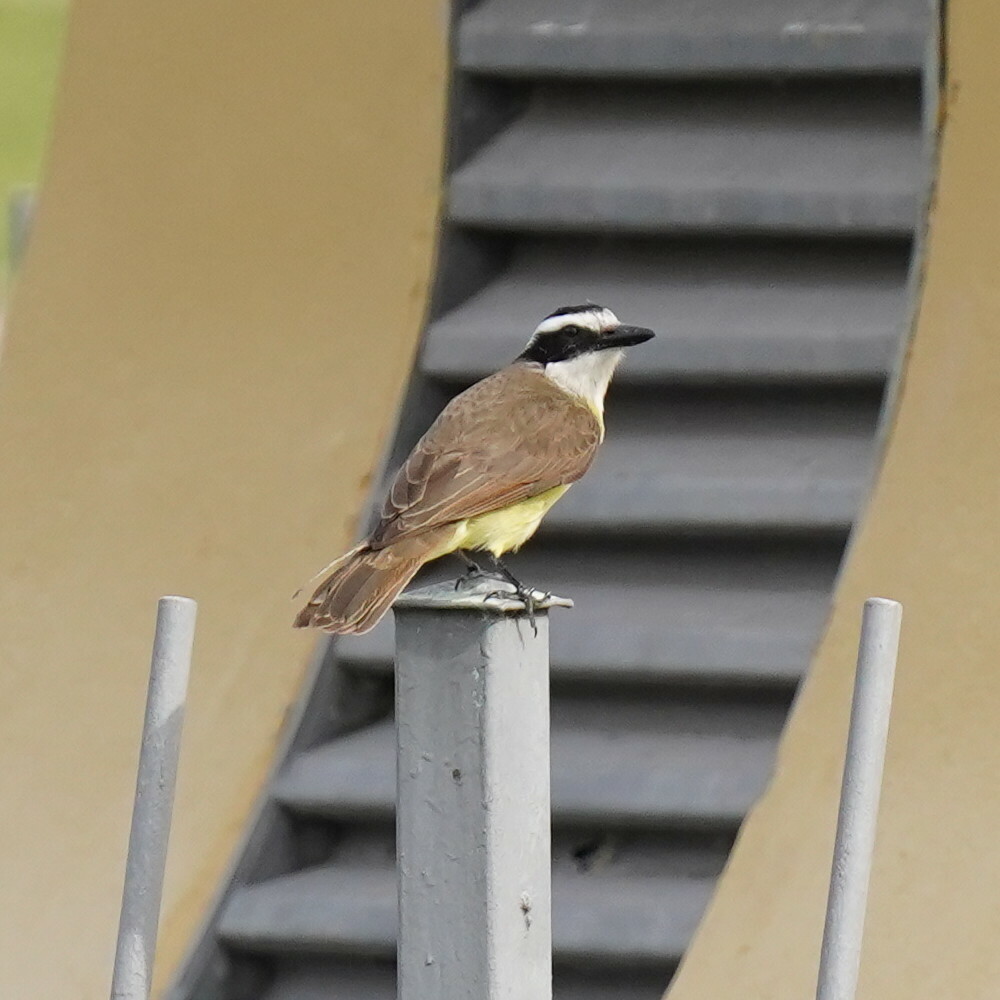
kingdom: Animalia
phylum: Chordata
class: Aves
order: Passeriformes
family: Tyrannidae
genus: Pitangus
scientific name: Pitangus sulphuratus
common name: Great kiskadee
